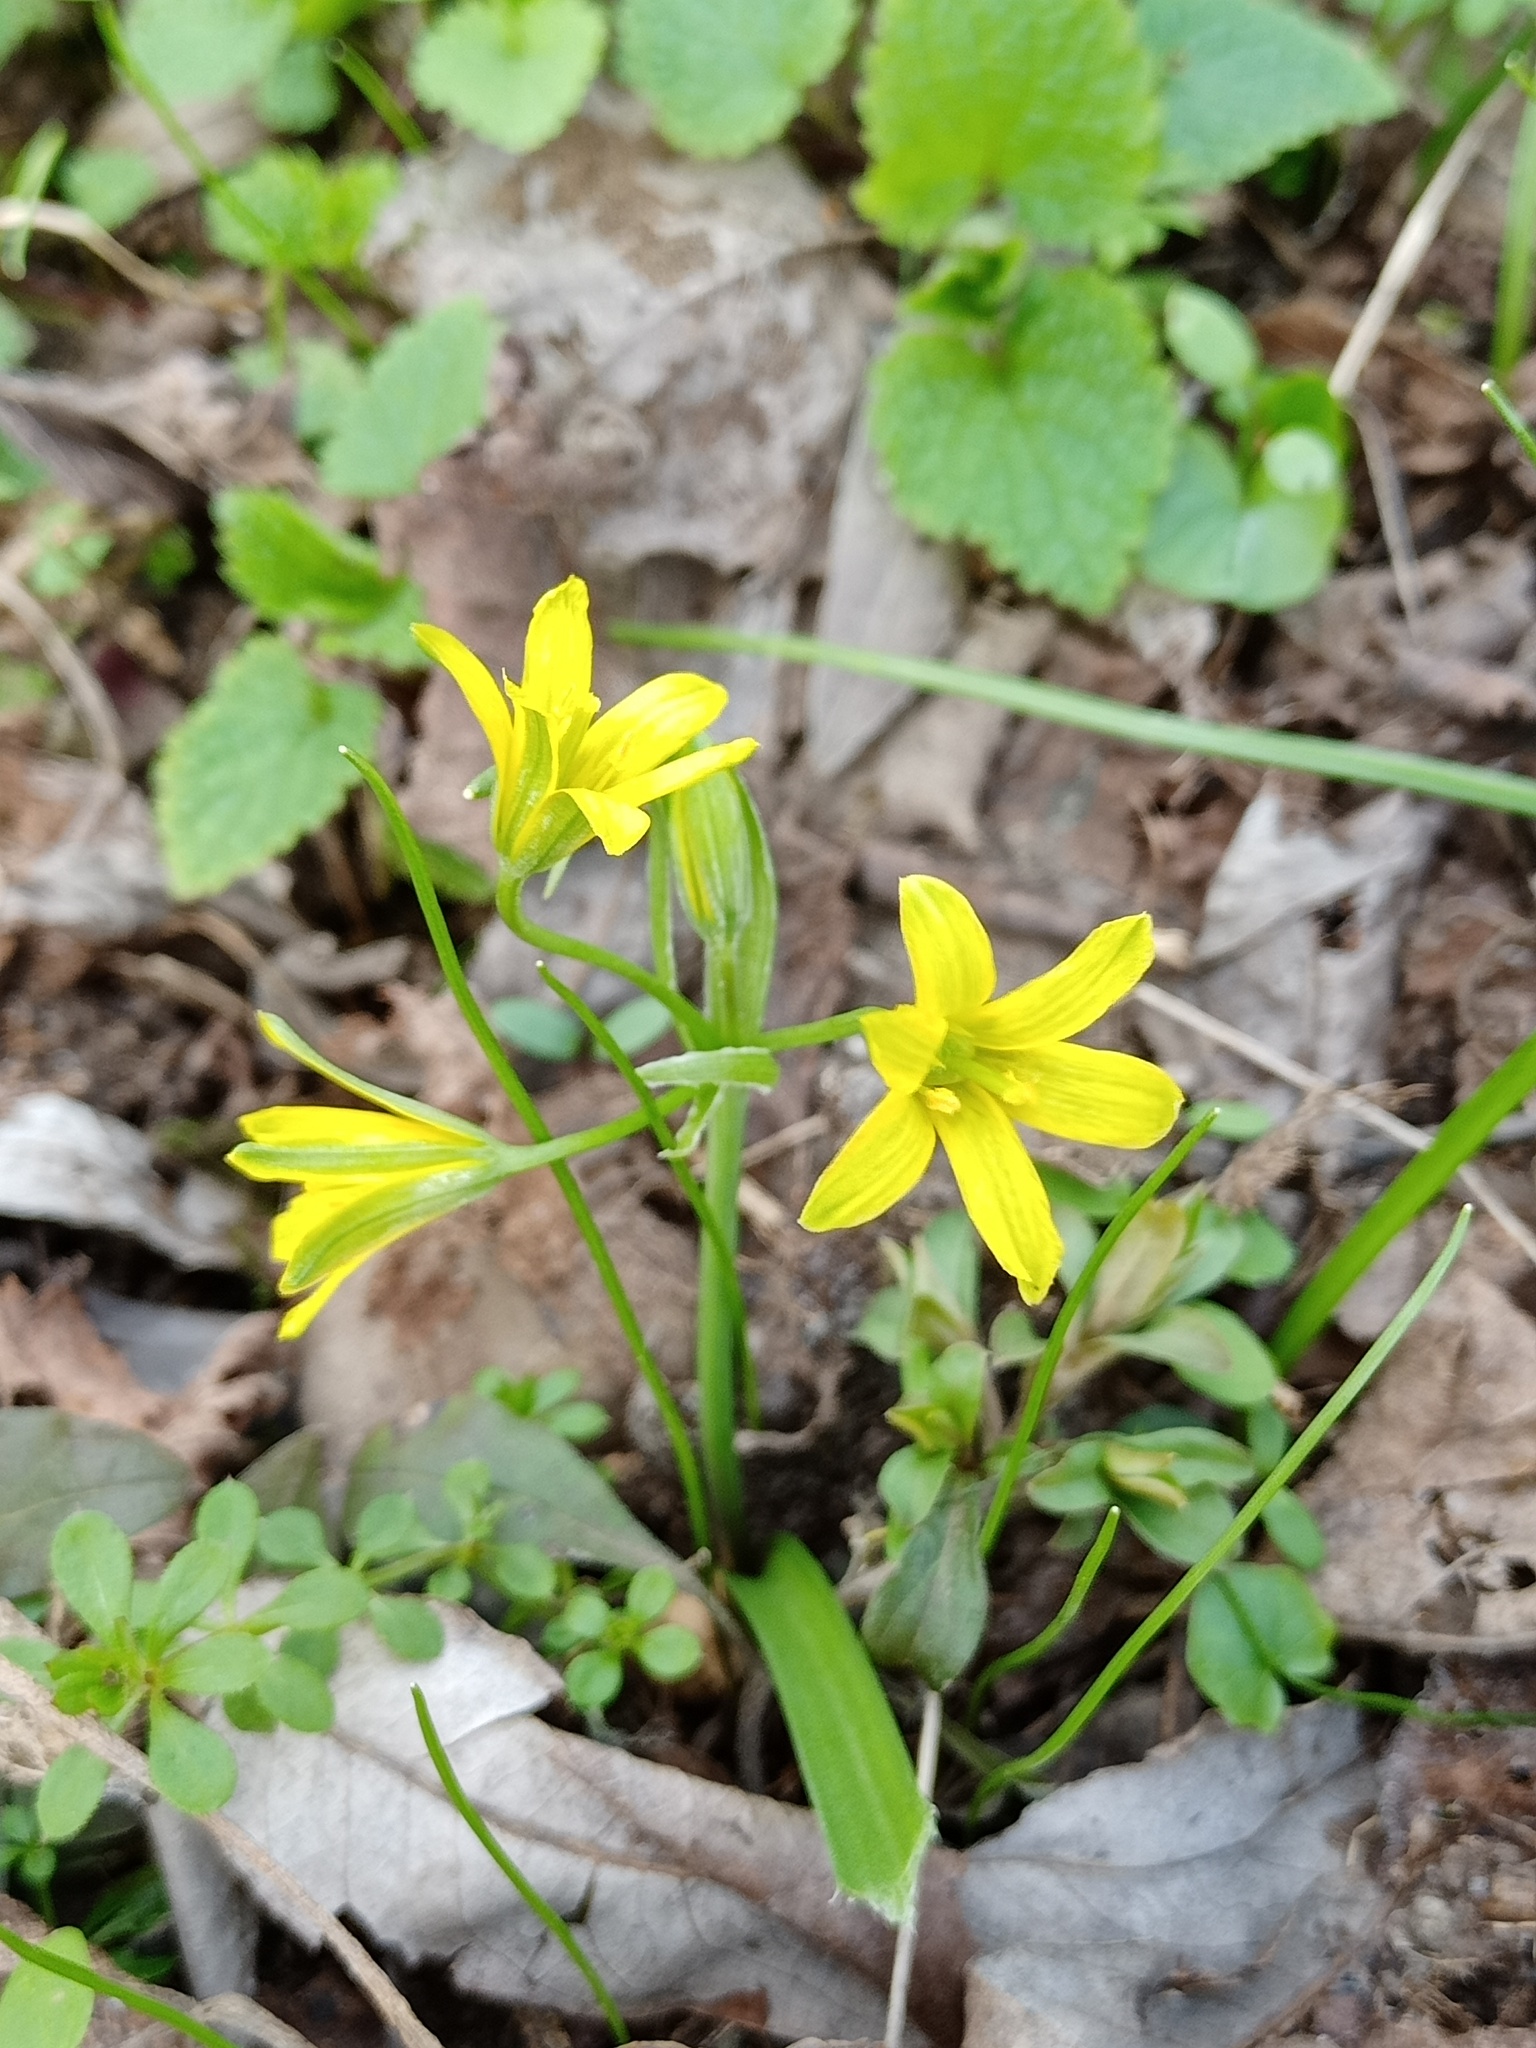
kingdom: Plantae
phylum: Tracheophyta
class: Liliopsida
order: Liliales
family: Liliaceae
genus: Gagea
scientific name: Gagea lutea
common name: Yellow star-of-bethlehem
